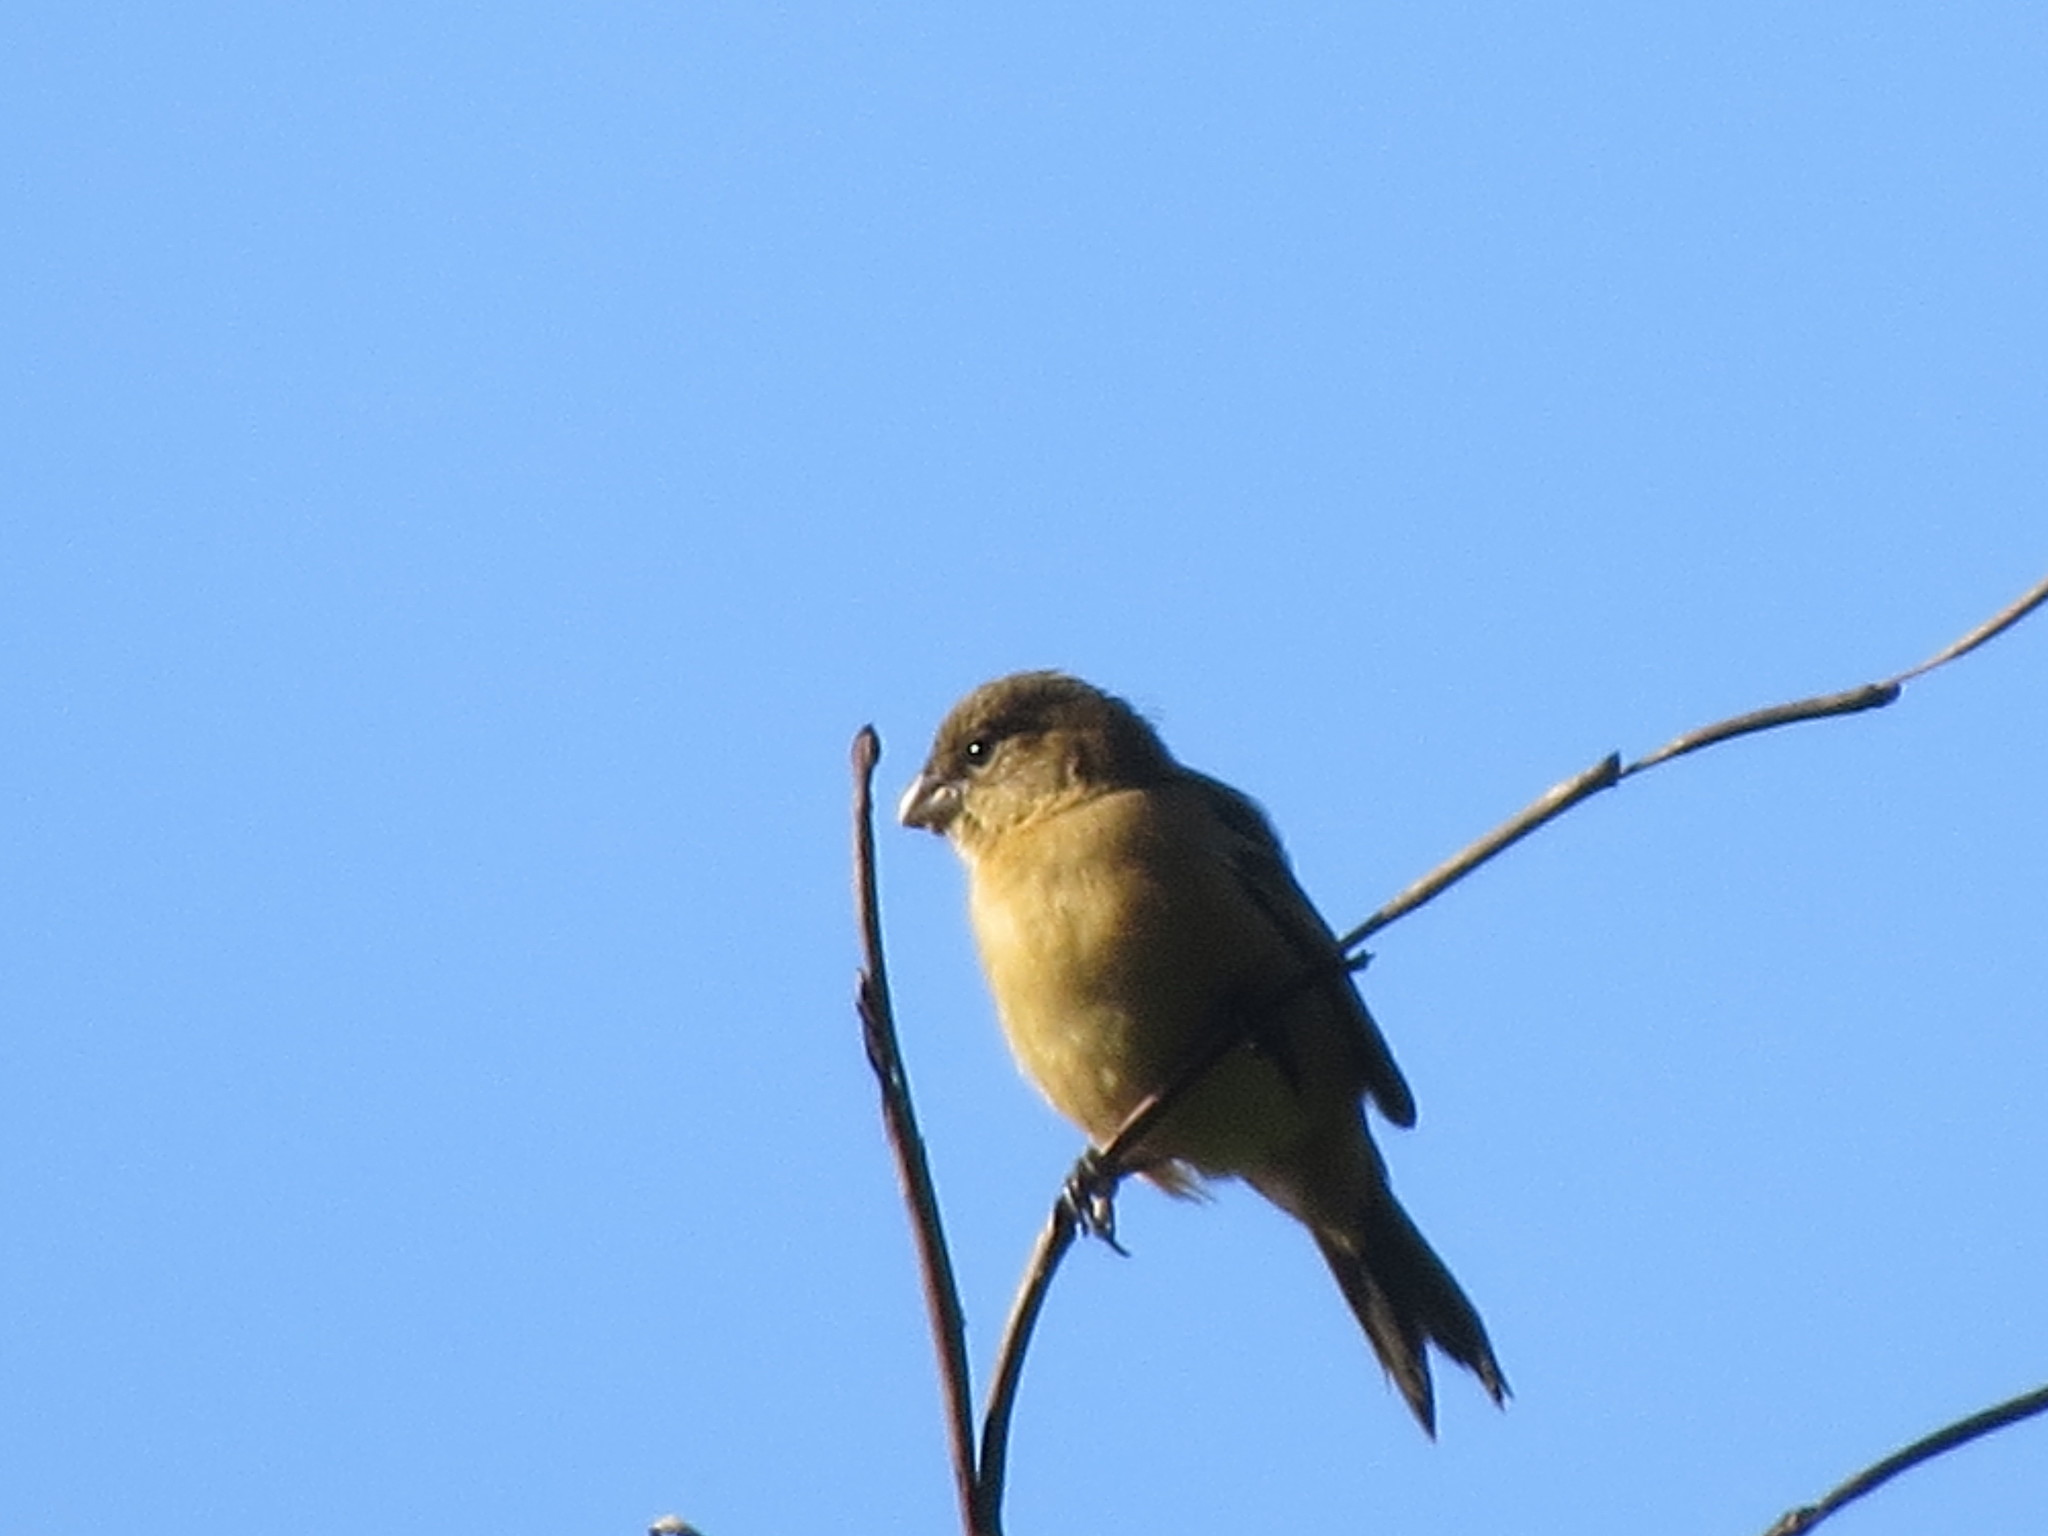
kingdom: Animalia
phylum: Chordata
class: Aves
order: Passeriformes
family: Thraupidae
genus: Sporophila
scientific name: Sporophila morelleti
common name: Morelet's seedeater
